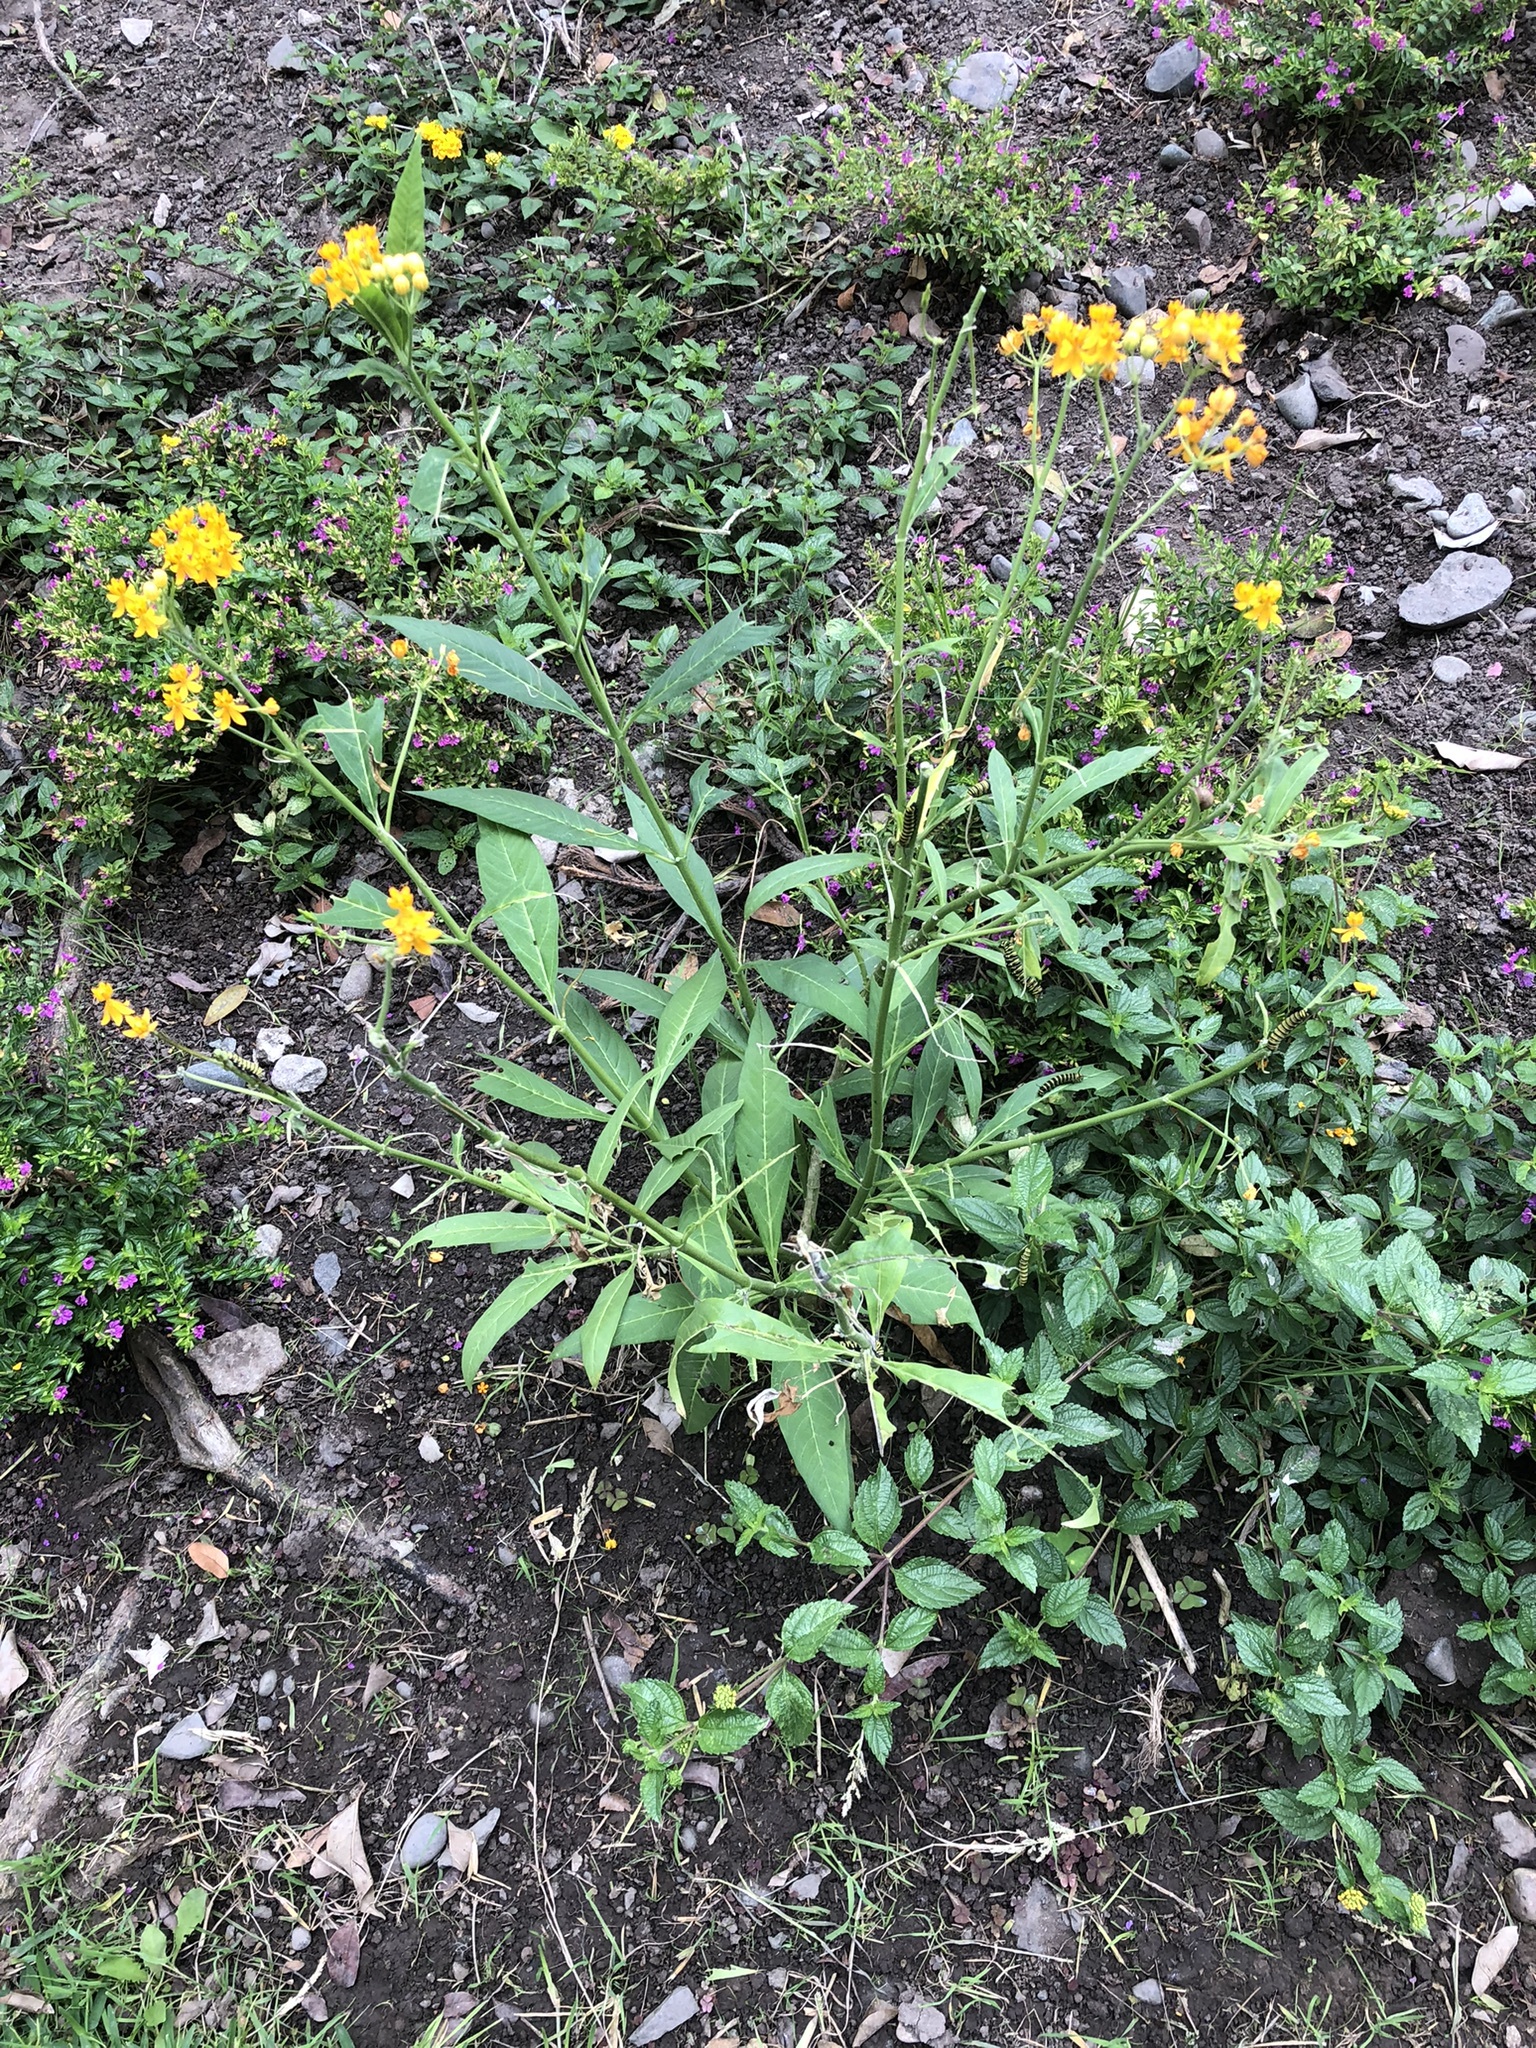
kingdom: Plantae
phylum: Tracheophyta
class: Magnoliopsida
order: Gentianales
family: Apocynaceae
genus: Asclepias
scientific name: Asclepias curassavica
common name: Bloodflower
